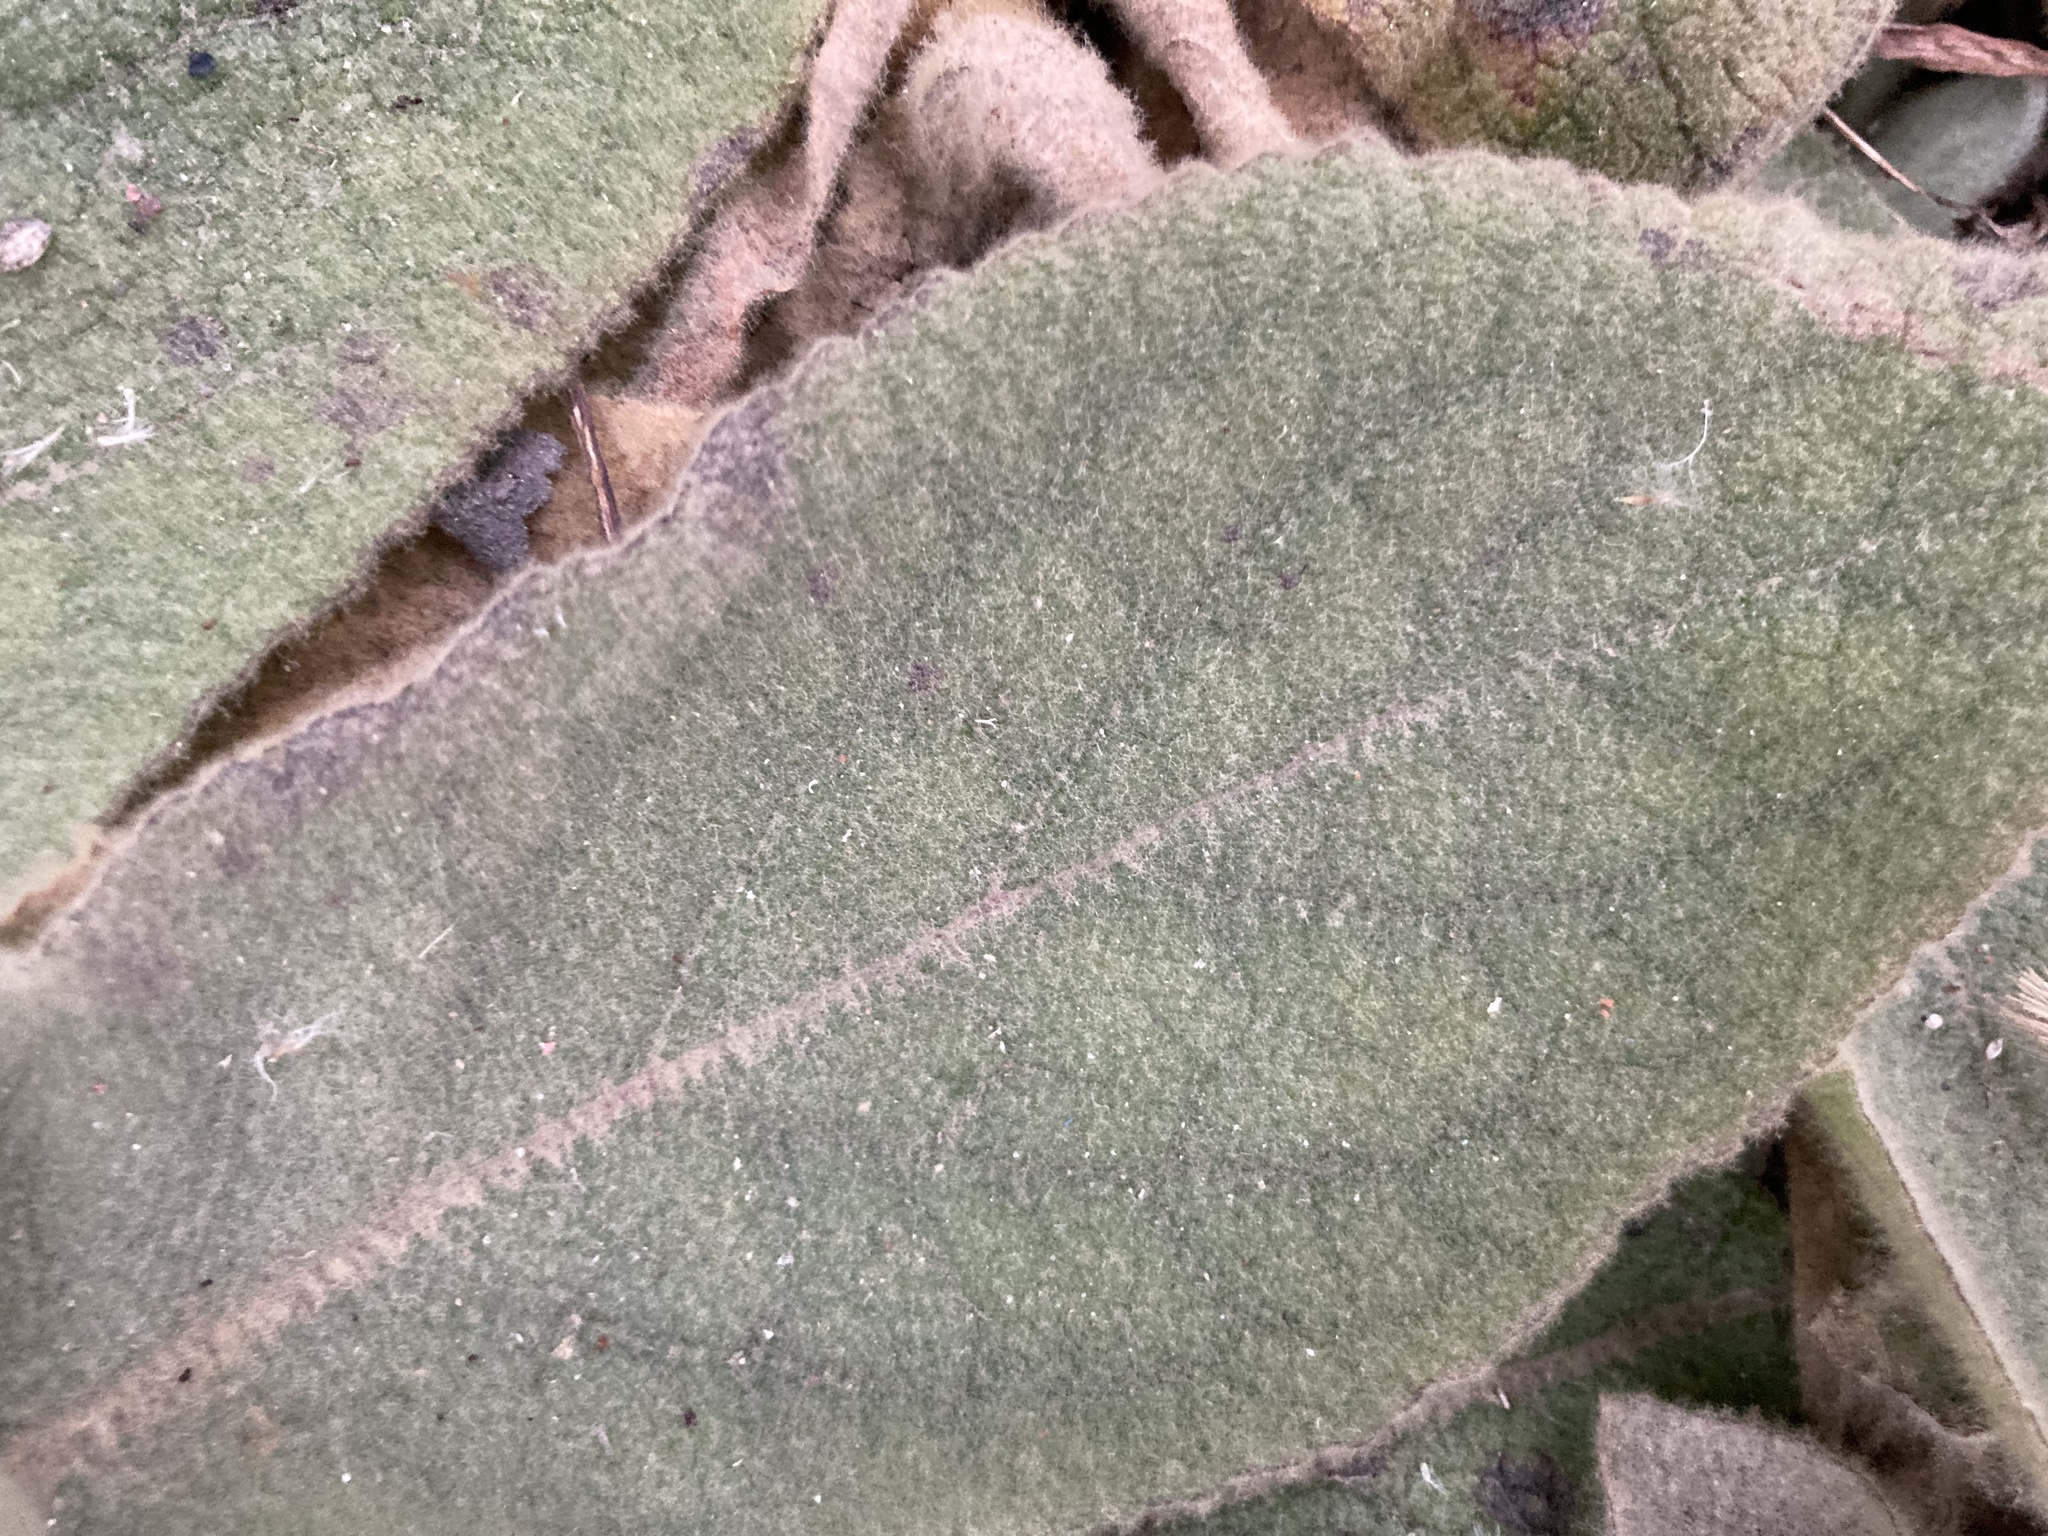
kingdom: Plantae
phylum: Tracheophyta
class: Magnoliopsida
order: Lamiales
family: Scrophulariaceae
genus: Verbascum
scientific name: Verbascum thapsus
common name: Common mullein
